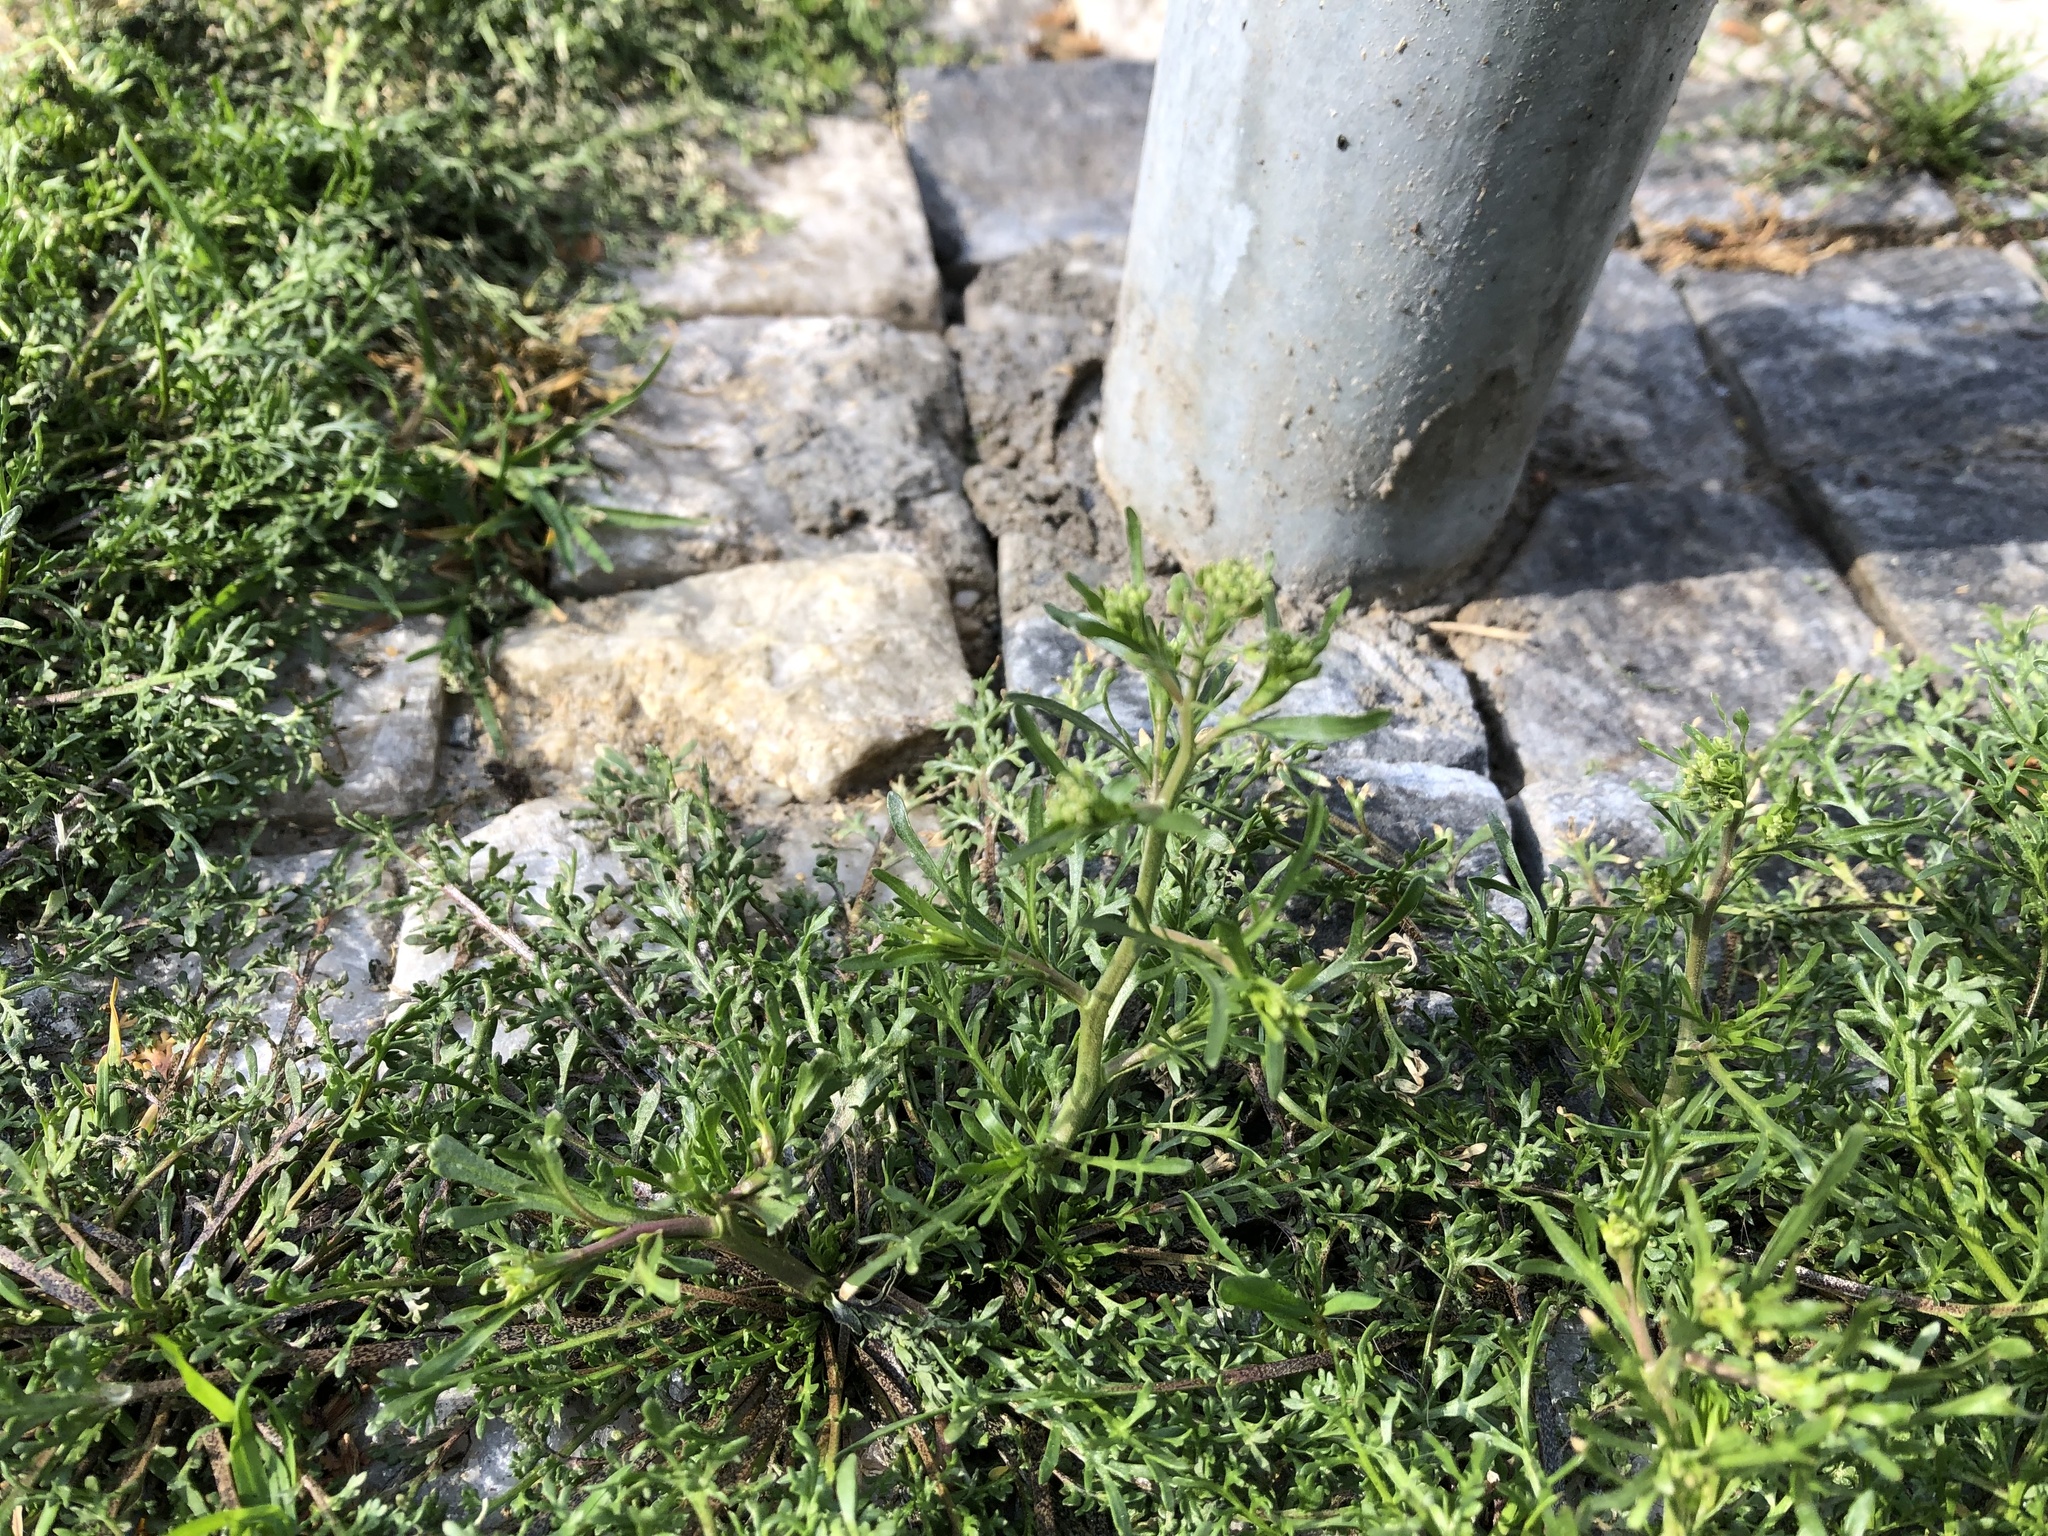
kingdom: Plantae
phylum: Tracheophyta
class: Magnoliopsida
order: Brassicales
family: Brassicaceae
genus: Lepidium
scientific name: Lepidium ruderale
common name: Narrow-leaved pepperwort
